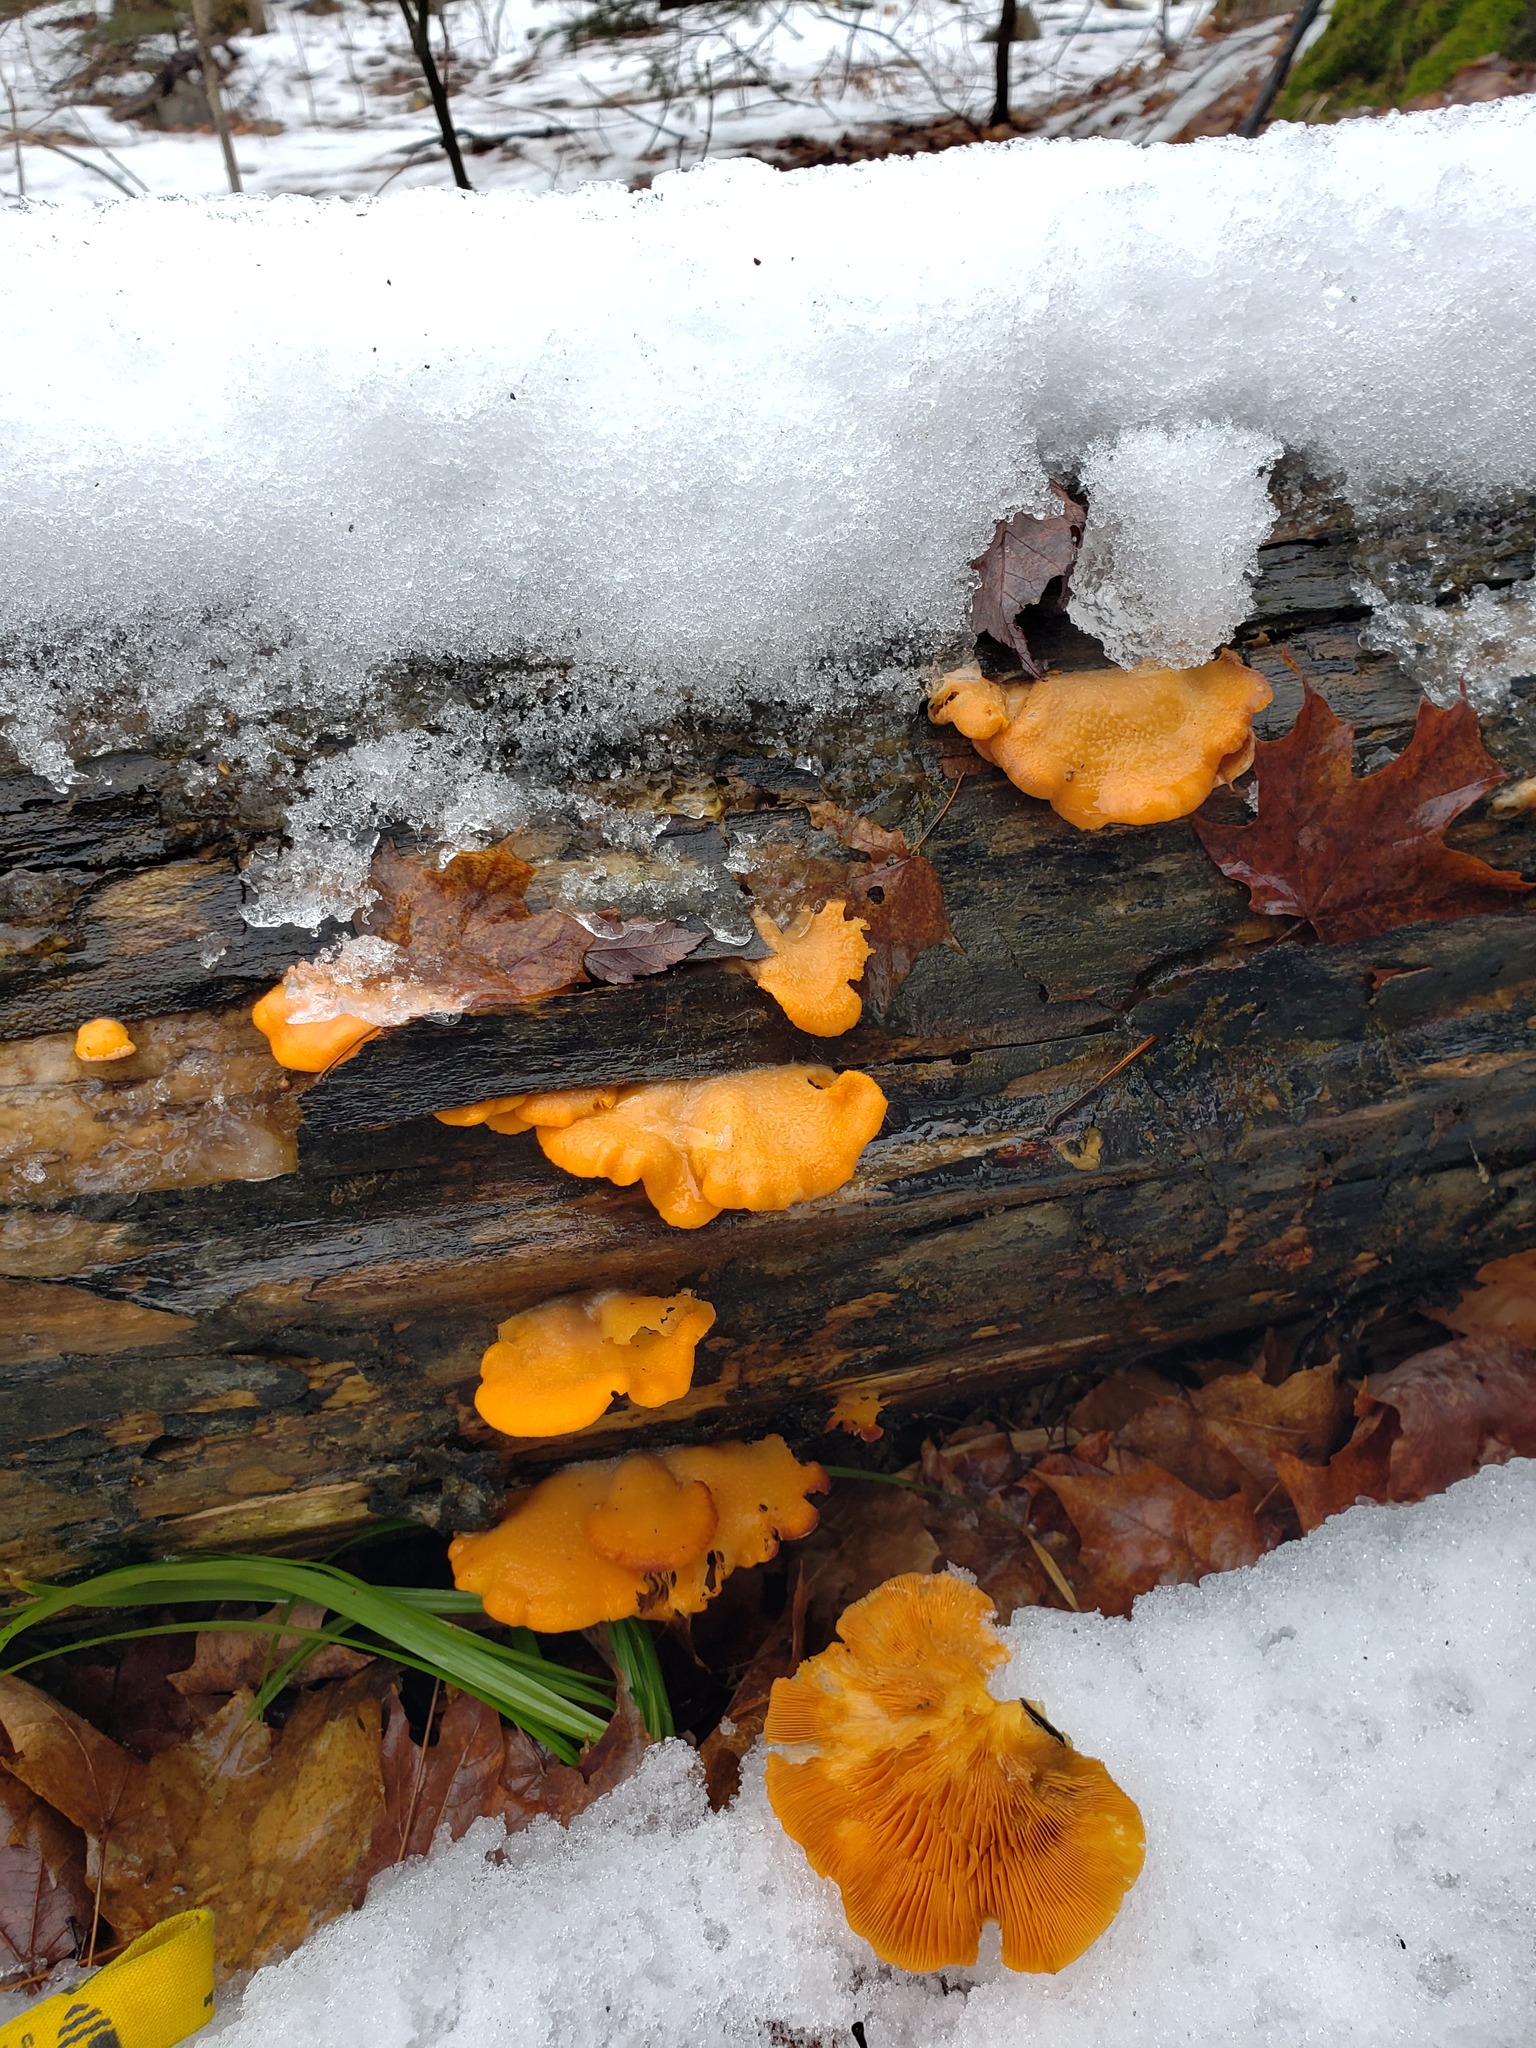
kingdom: Fungi
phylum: Basidiomycota
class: Agaricomycetes
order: Agaricales
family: Phyllotopsidaceae
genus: Phyllotopsis
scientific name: Phyllotopsis nidulans
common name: Orange mock oyster
